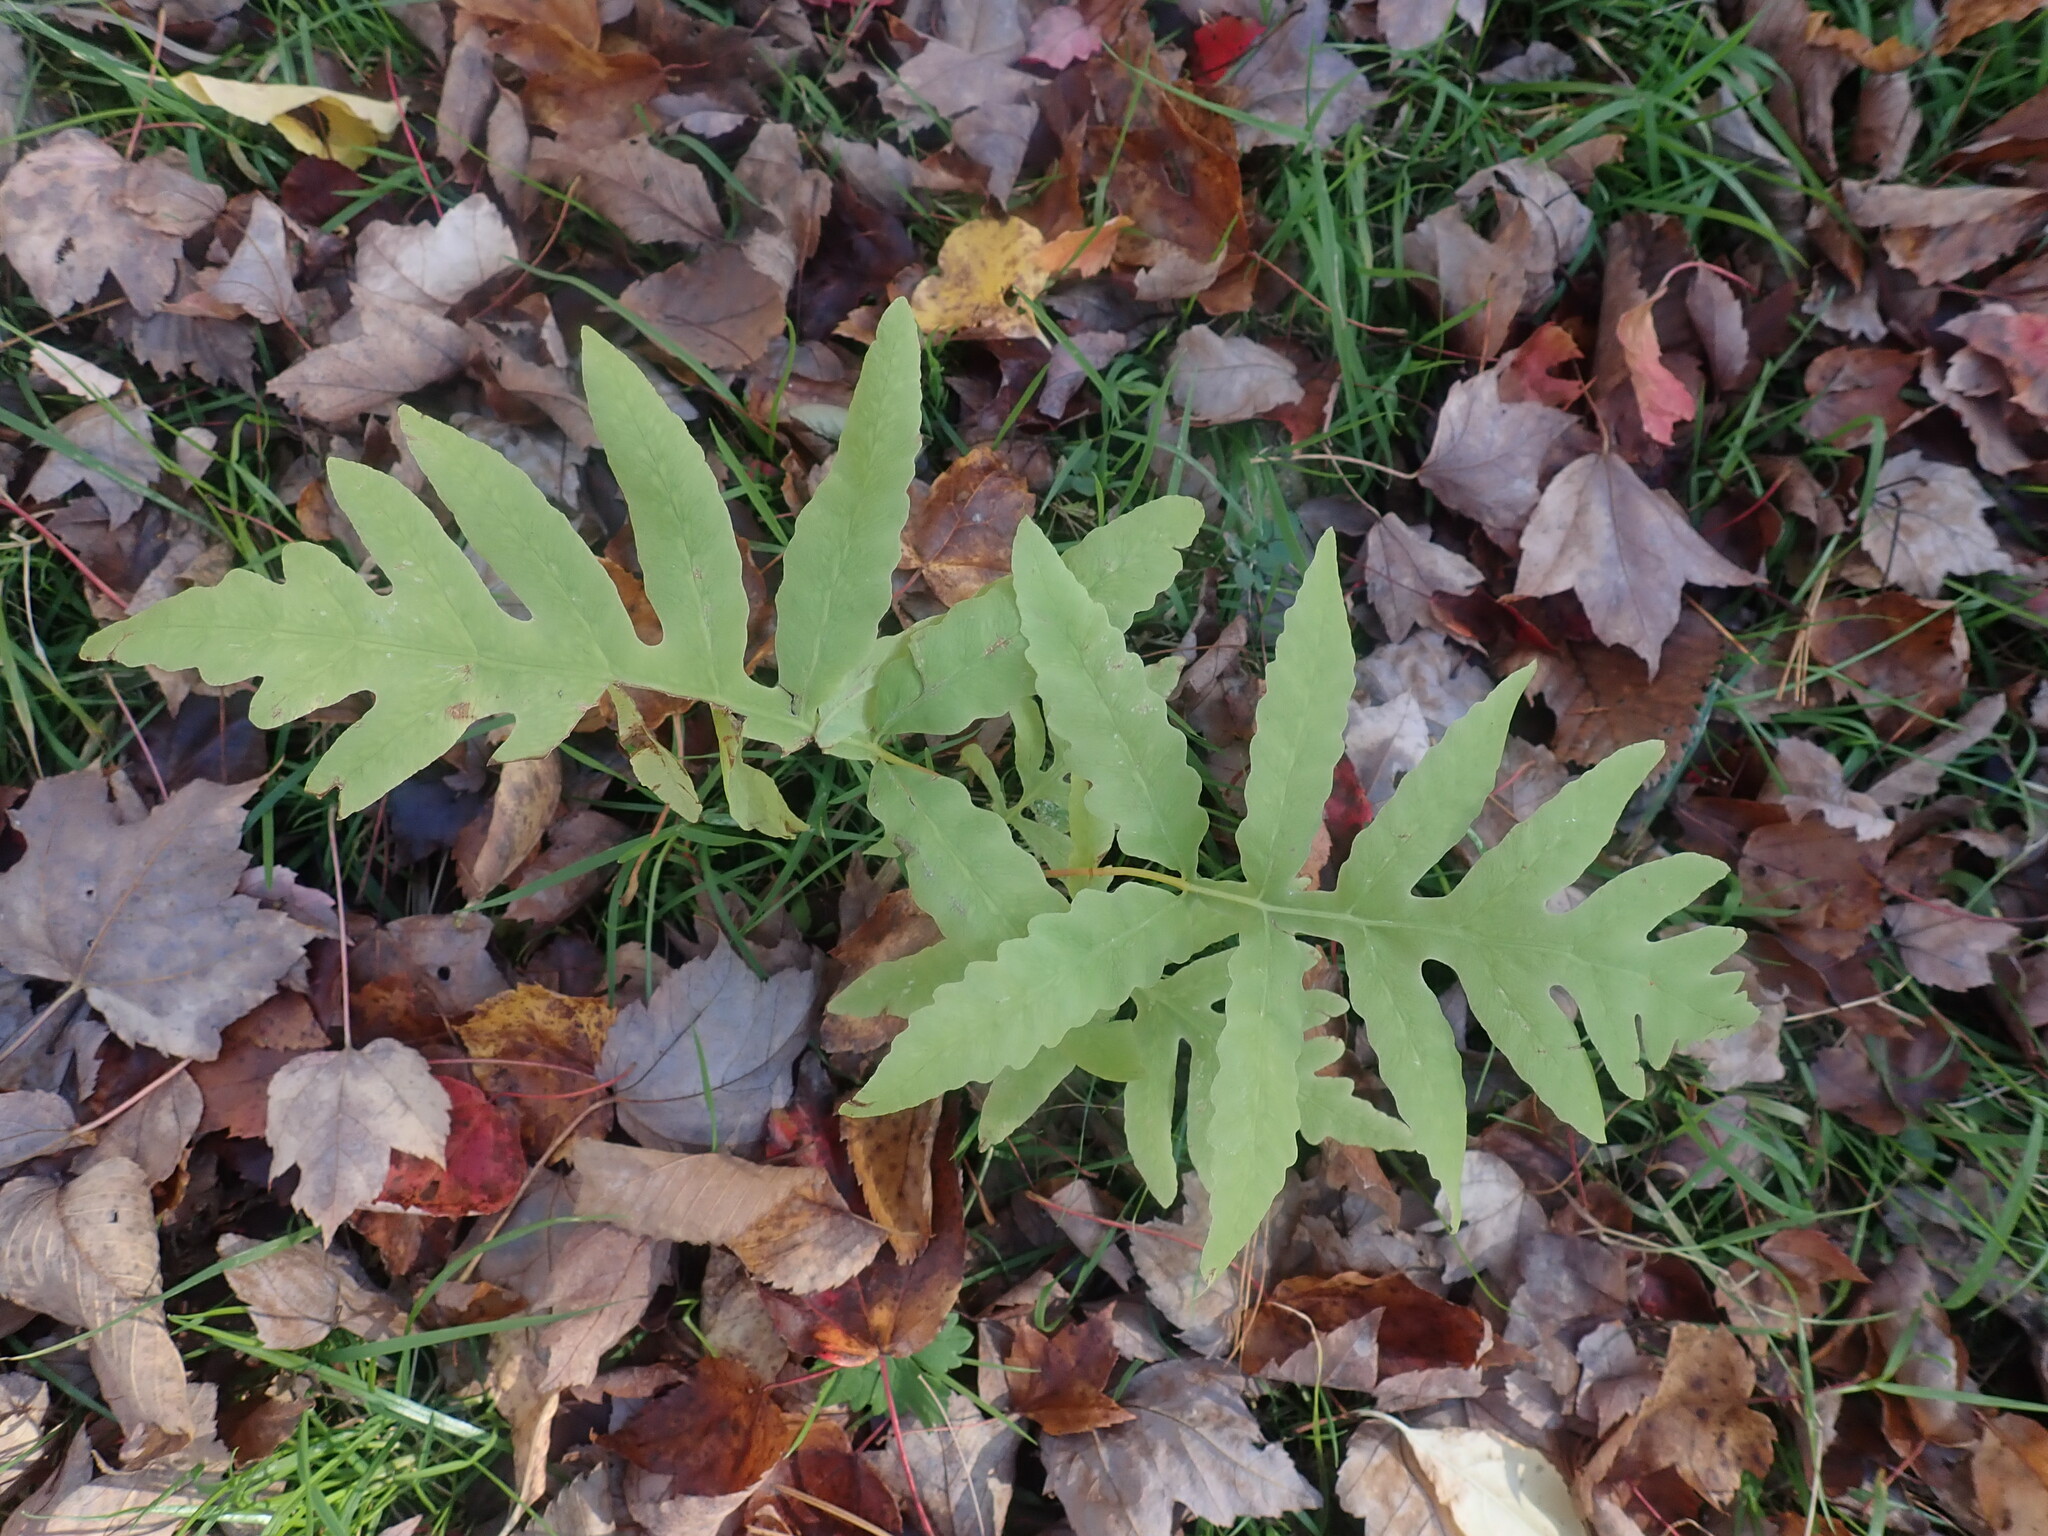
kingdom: Plantae
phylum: Tracheophyta
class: Polypodiopsida
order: Polypodiales
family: Onocleaceae
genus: Onoclea
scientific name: Onoclea sensibilis
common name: Sensitive fern
